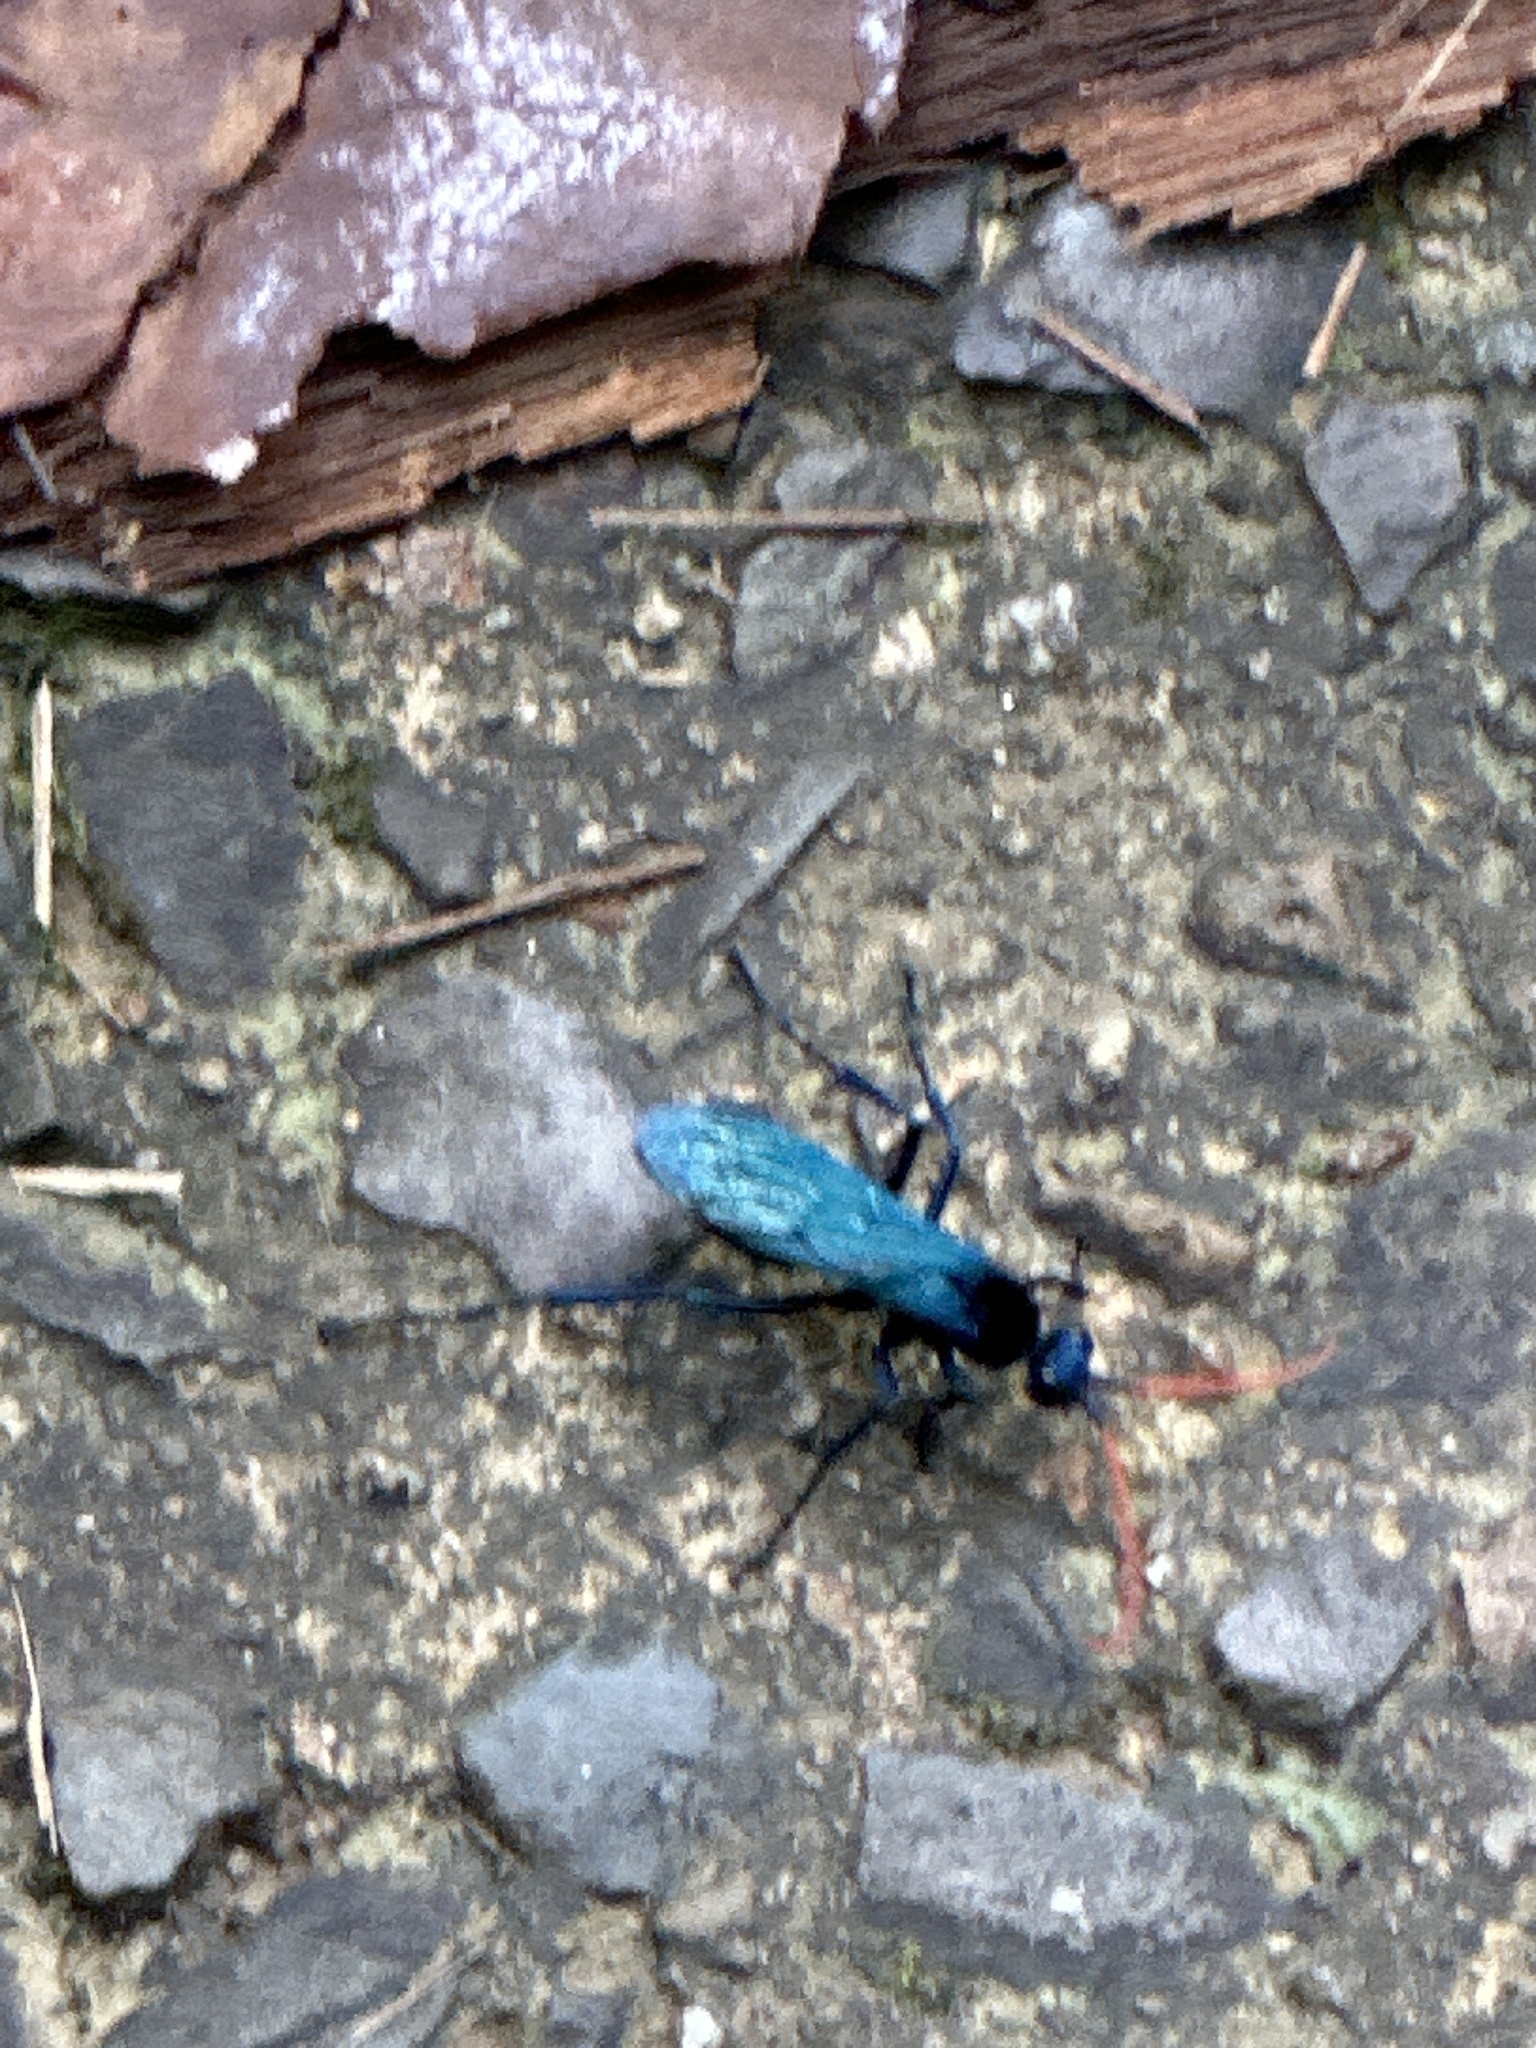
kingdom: Animalia
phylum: Arthropoda
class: Insecta
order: Hymenoptera
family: Pompilidae
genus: Pepsis
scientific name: Pepsis ruficornis
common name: Orange-horned tarantula hawk
